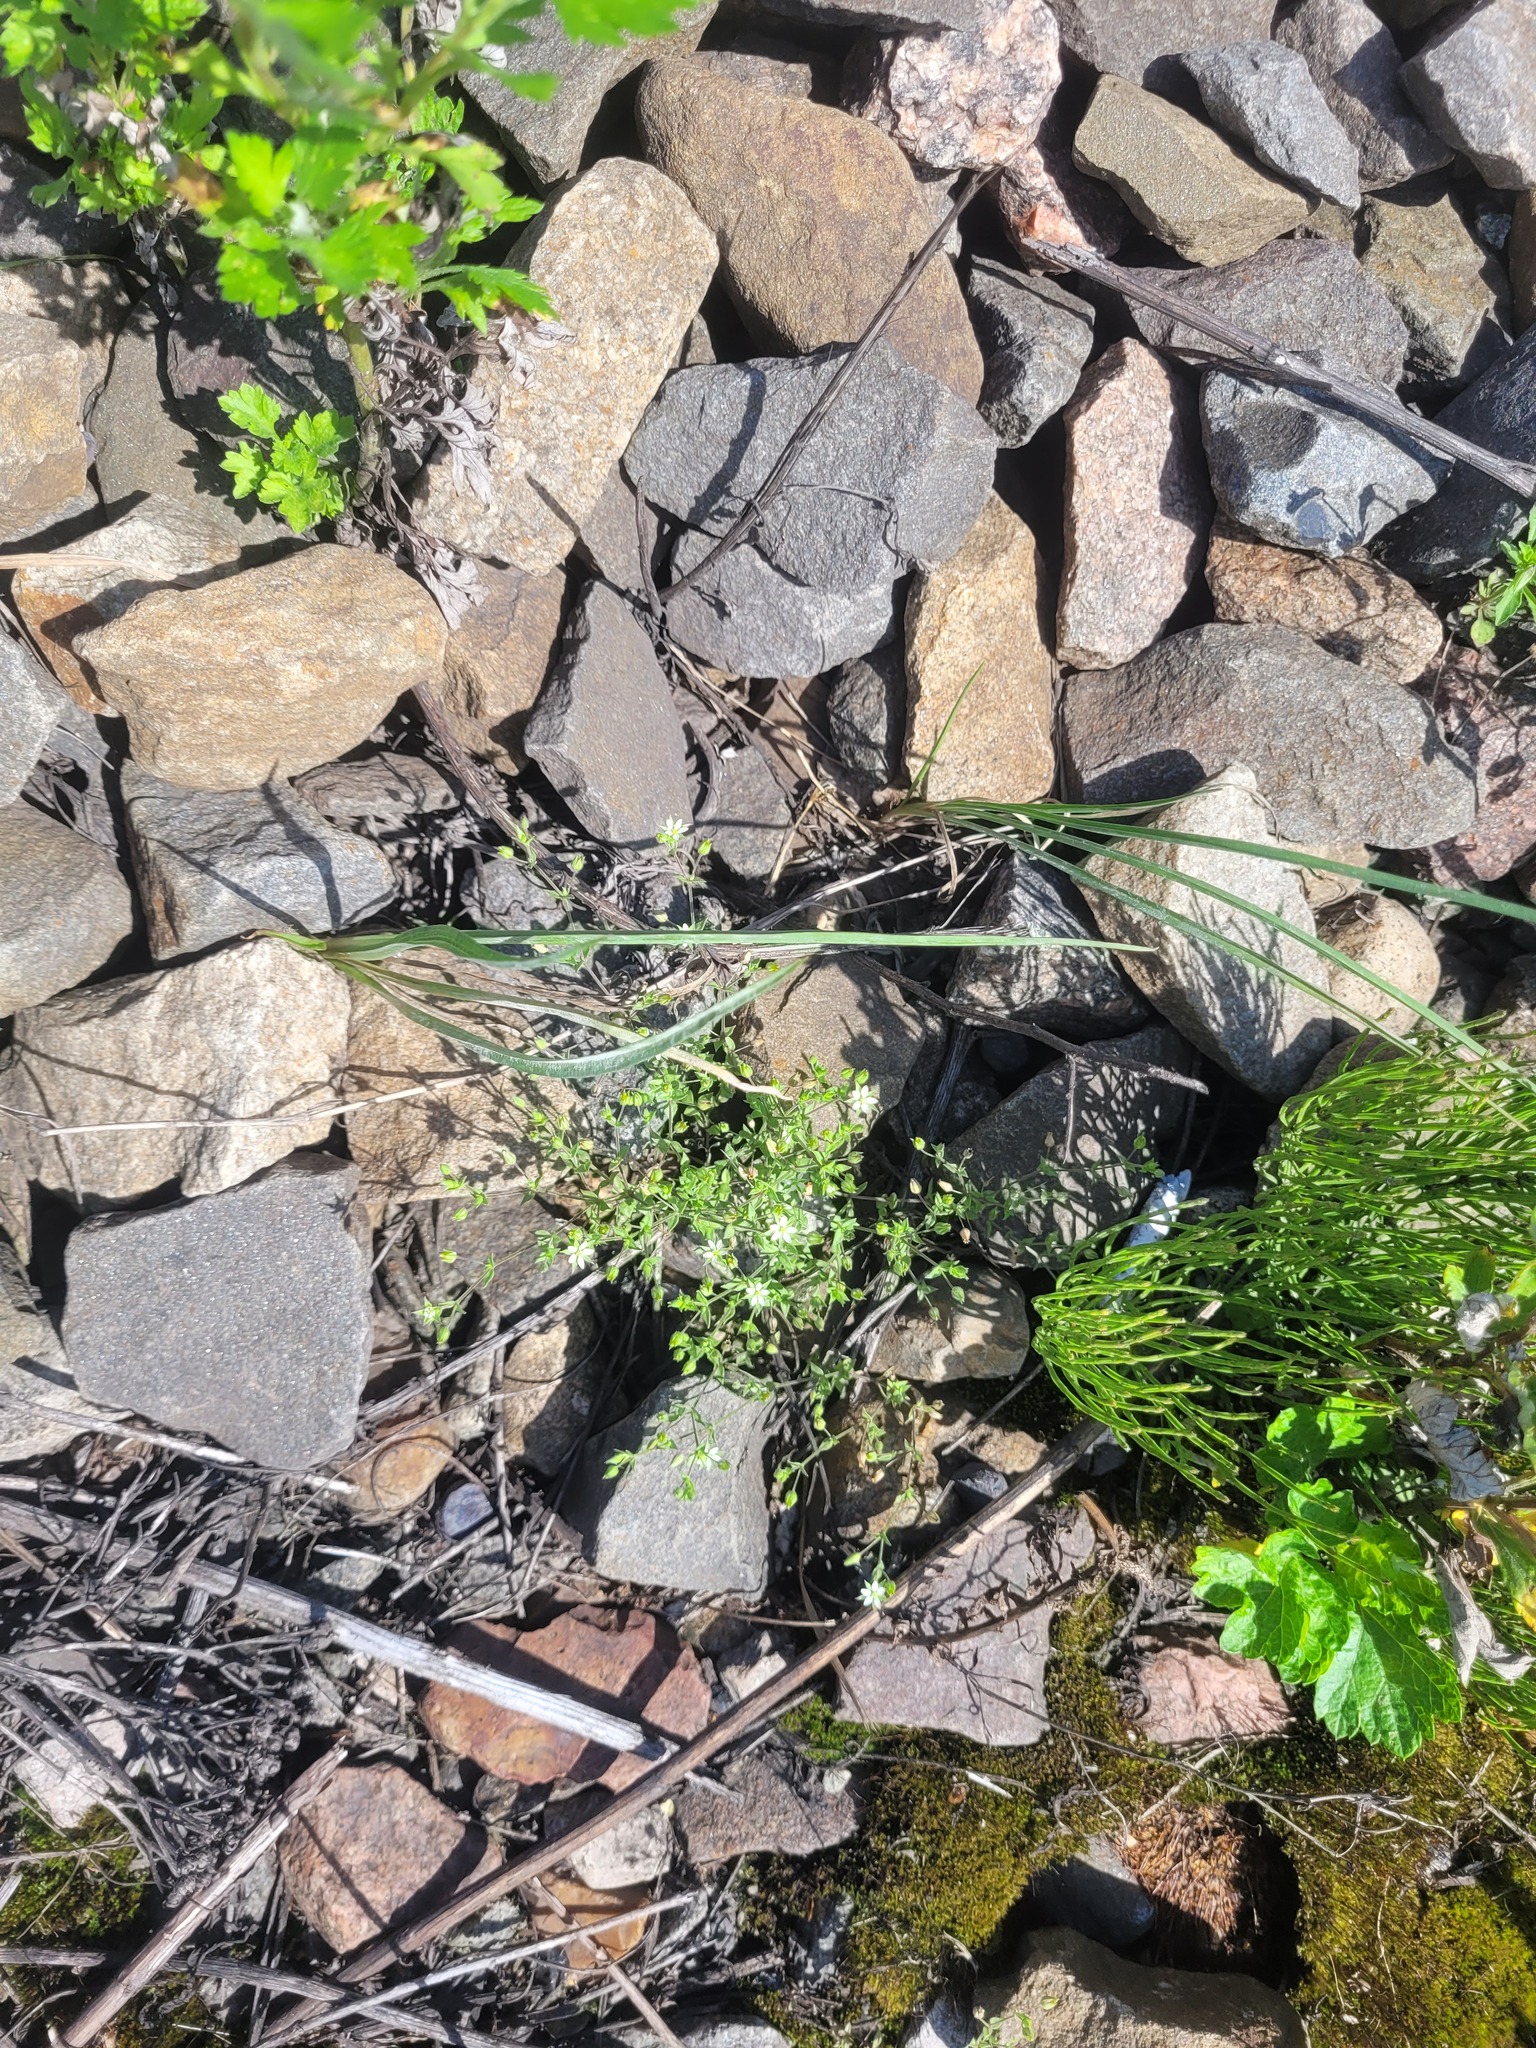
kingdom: Plantae
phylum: Tracheophyta
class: Magnoliopsida
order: Caryophyllales
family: Caryophyllaceae
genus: Arenaria
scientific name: Arenaria serpyllifolia
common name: Thyme-leaved sandwort
